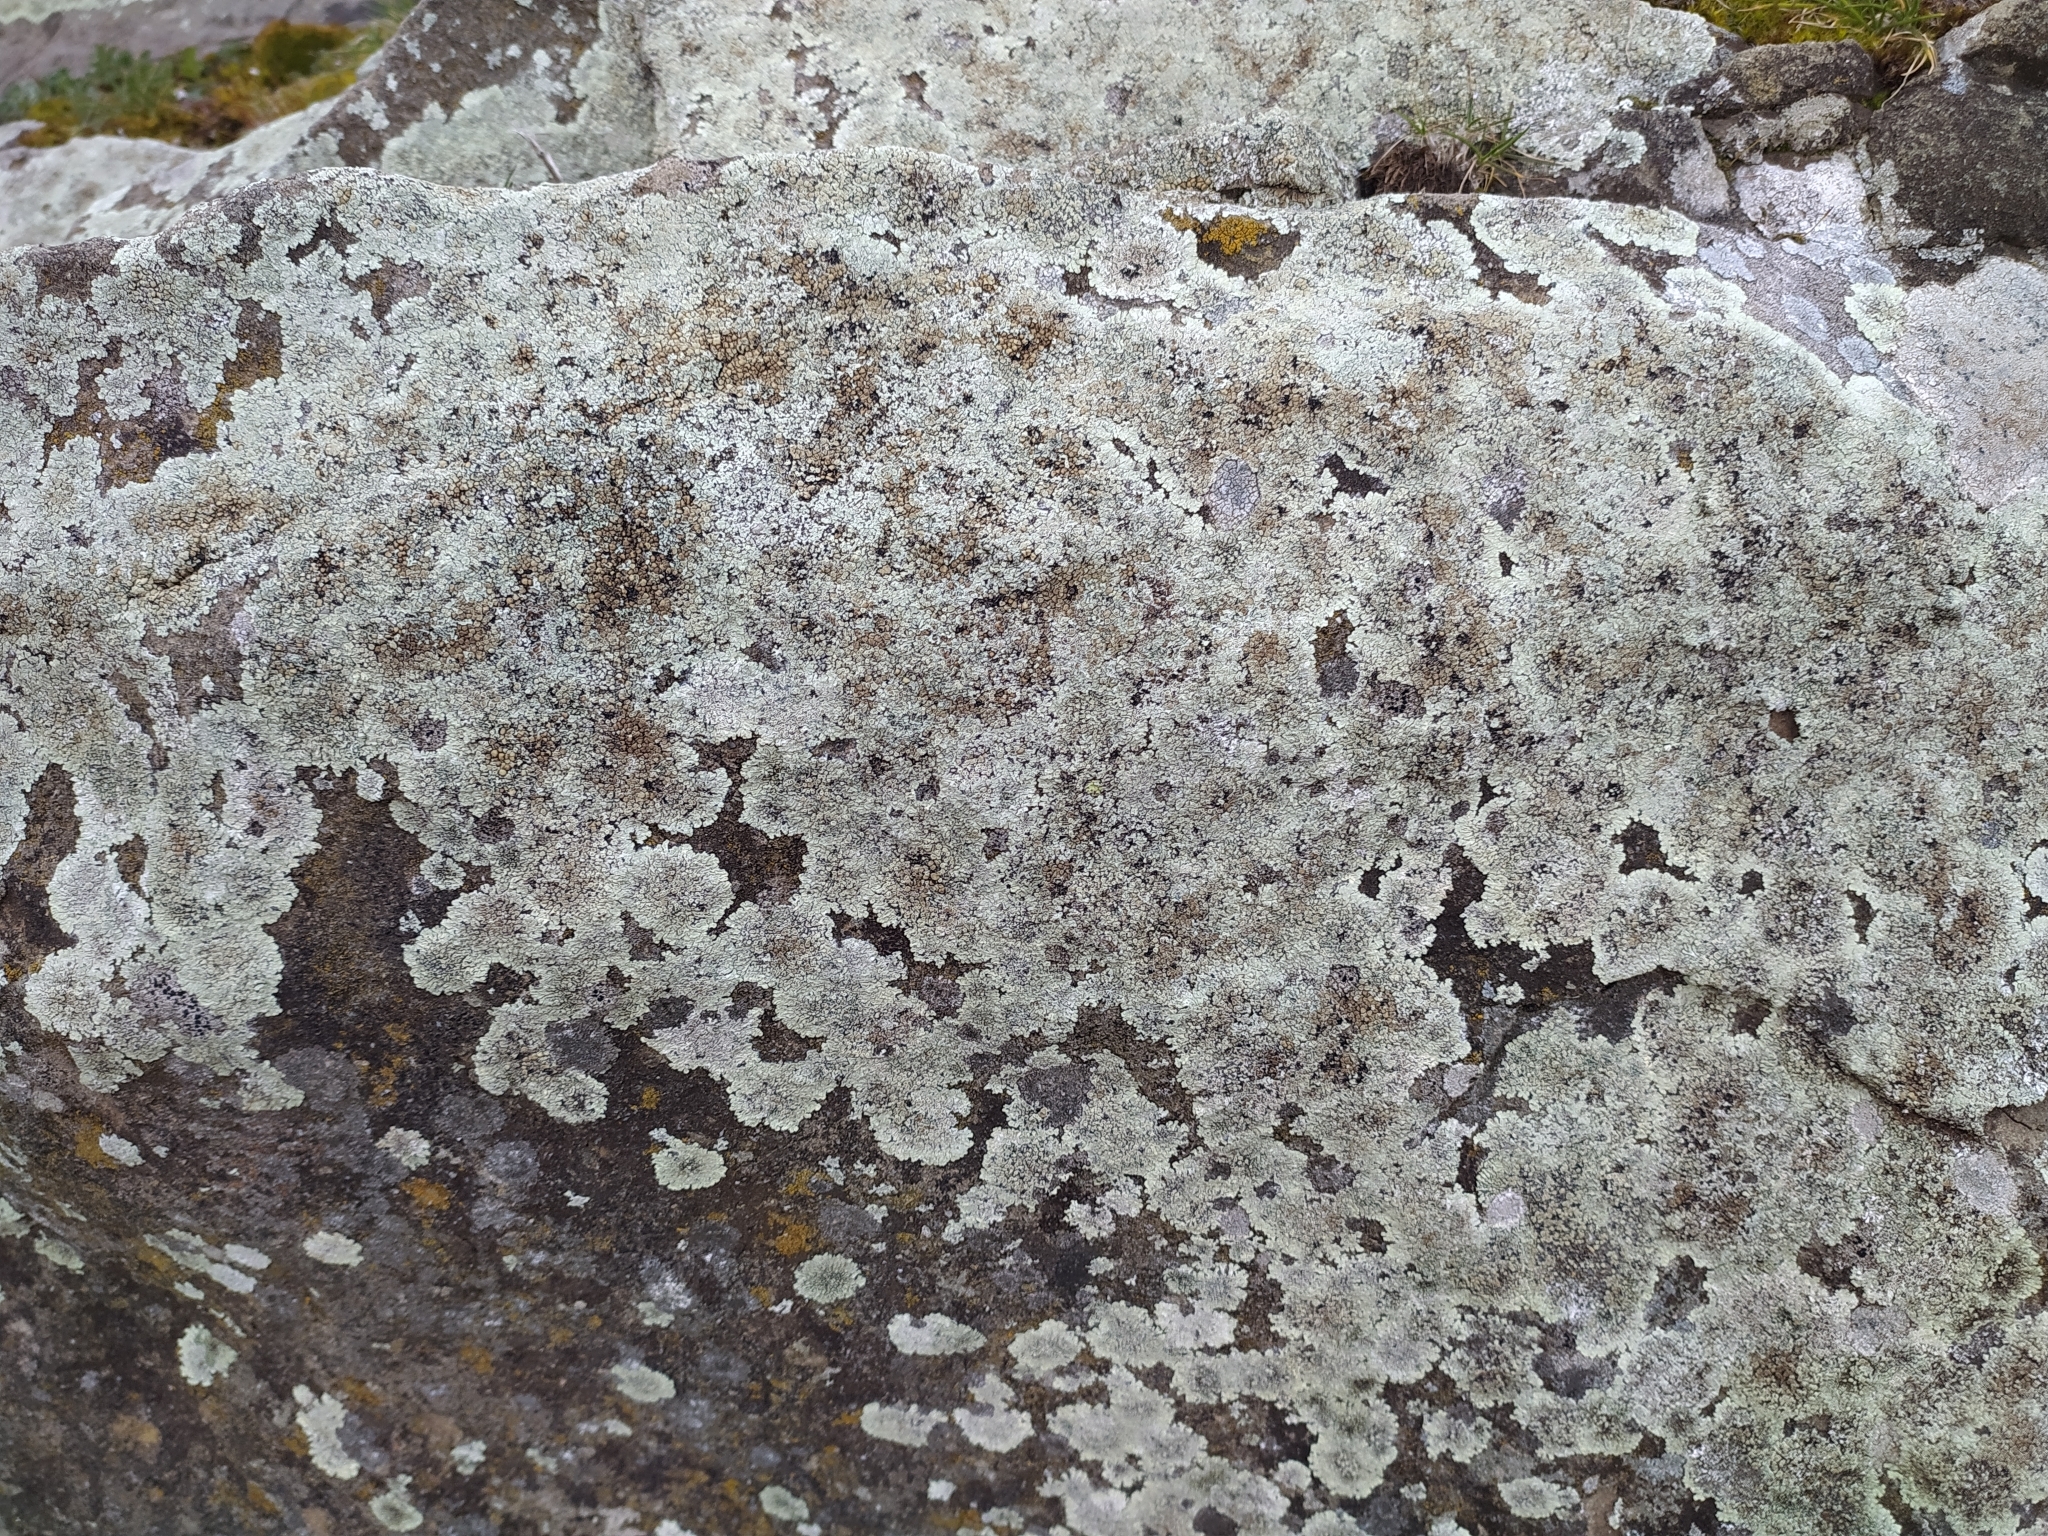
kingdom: Fungi
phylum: Ascomycota
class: Lecanoromycetes
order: Lecanorales
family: Lecanoraceae
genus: Protoparmeliopsis
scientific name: Protoparmeliopsis muralis
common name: Stonewall rim lichen
